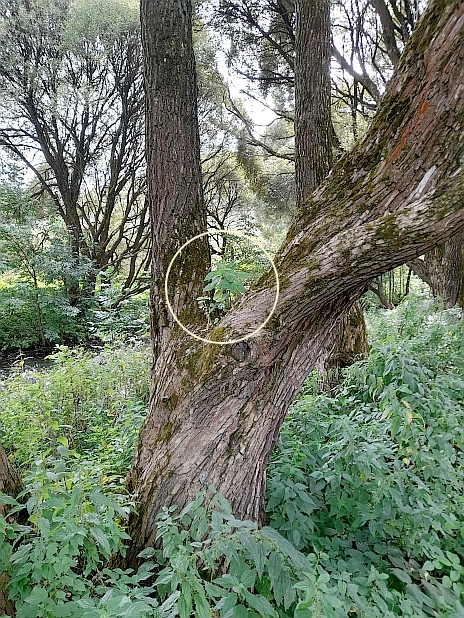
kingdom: Plantae
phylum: Tracheophyta
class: Magnoliopsida
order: Ericales
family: Balsaminaceae
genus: Impatiens
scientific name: Impatiens parviflora
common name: Small balsam
